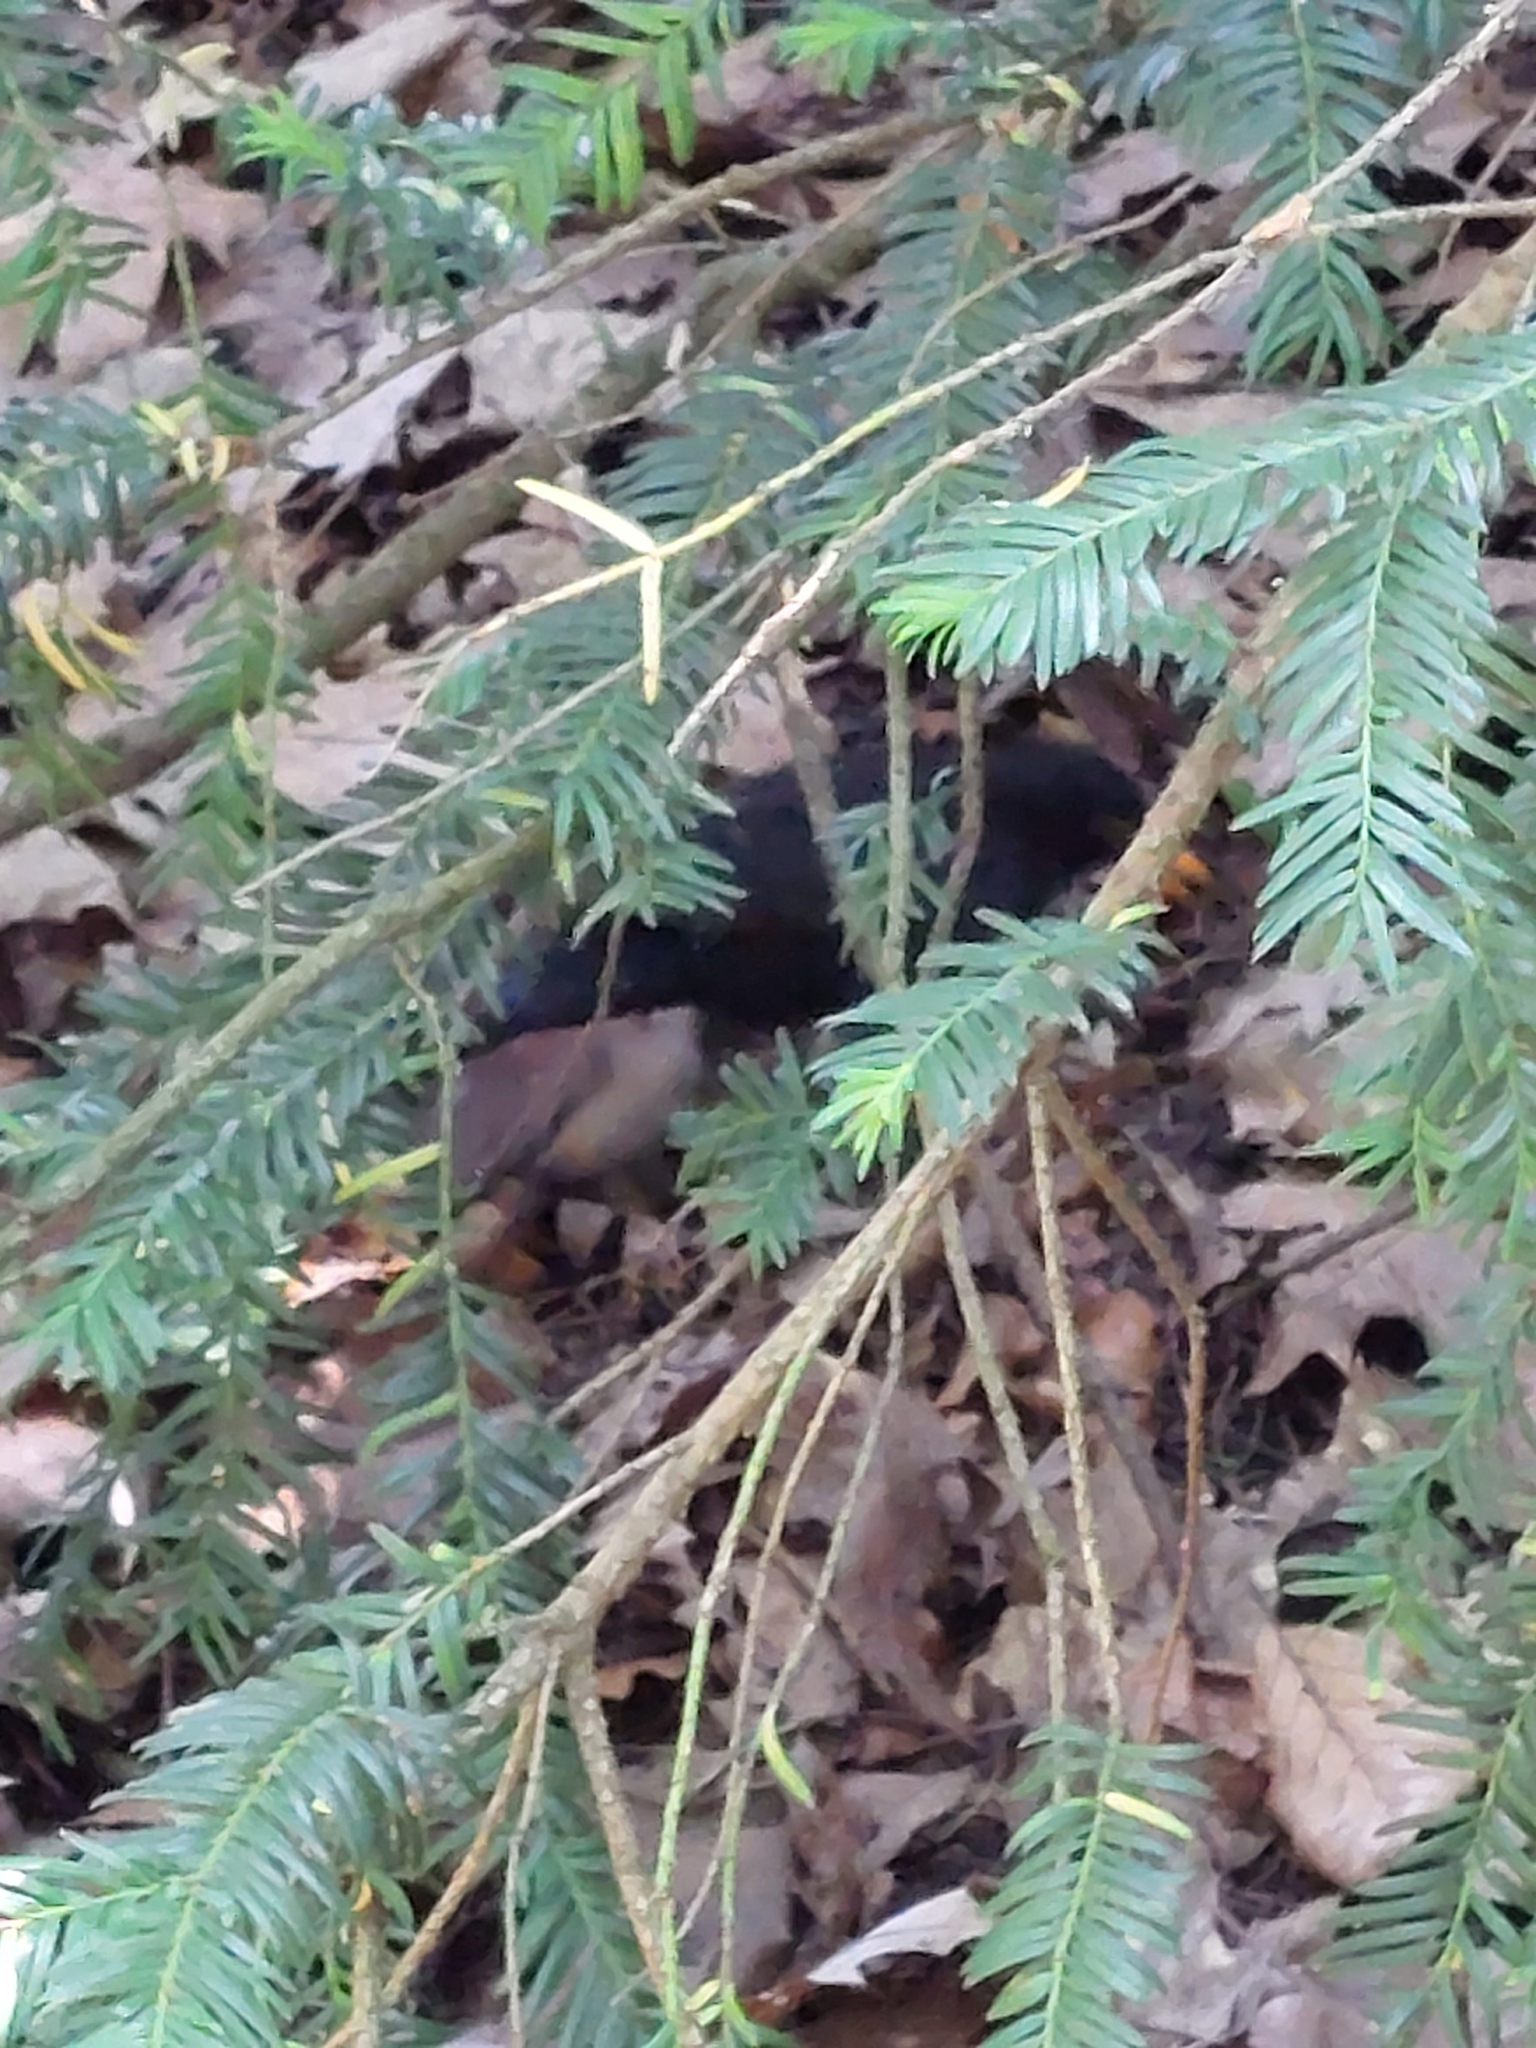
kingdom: Animalia
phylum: Chordata
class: Aves
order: Passeriformes
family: Turdidae
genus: Turdus
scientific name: Turdus merula
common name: Common blackbird
